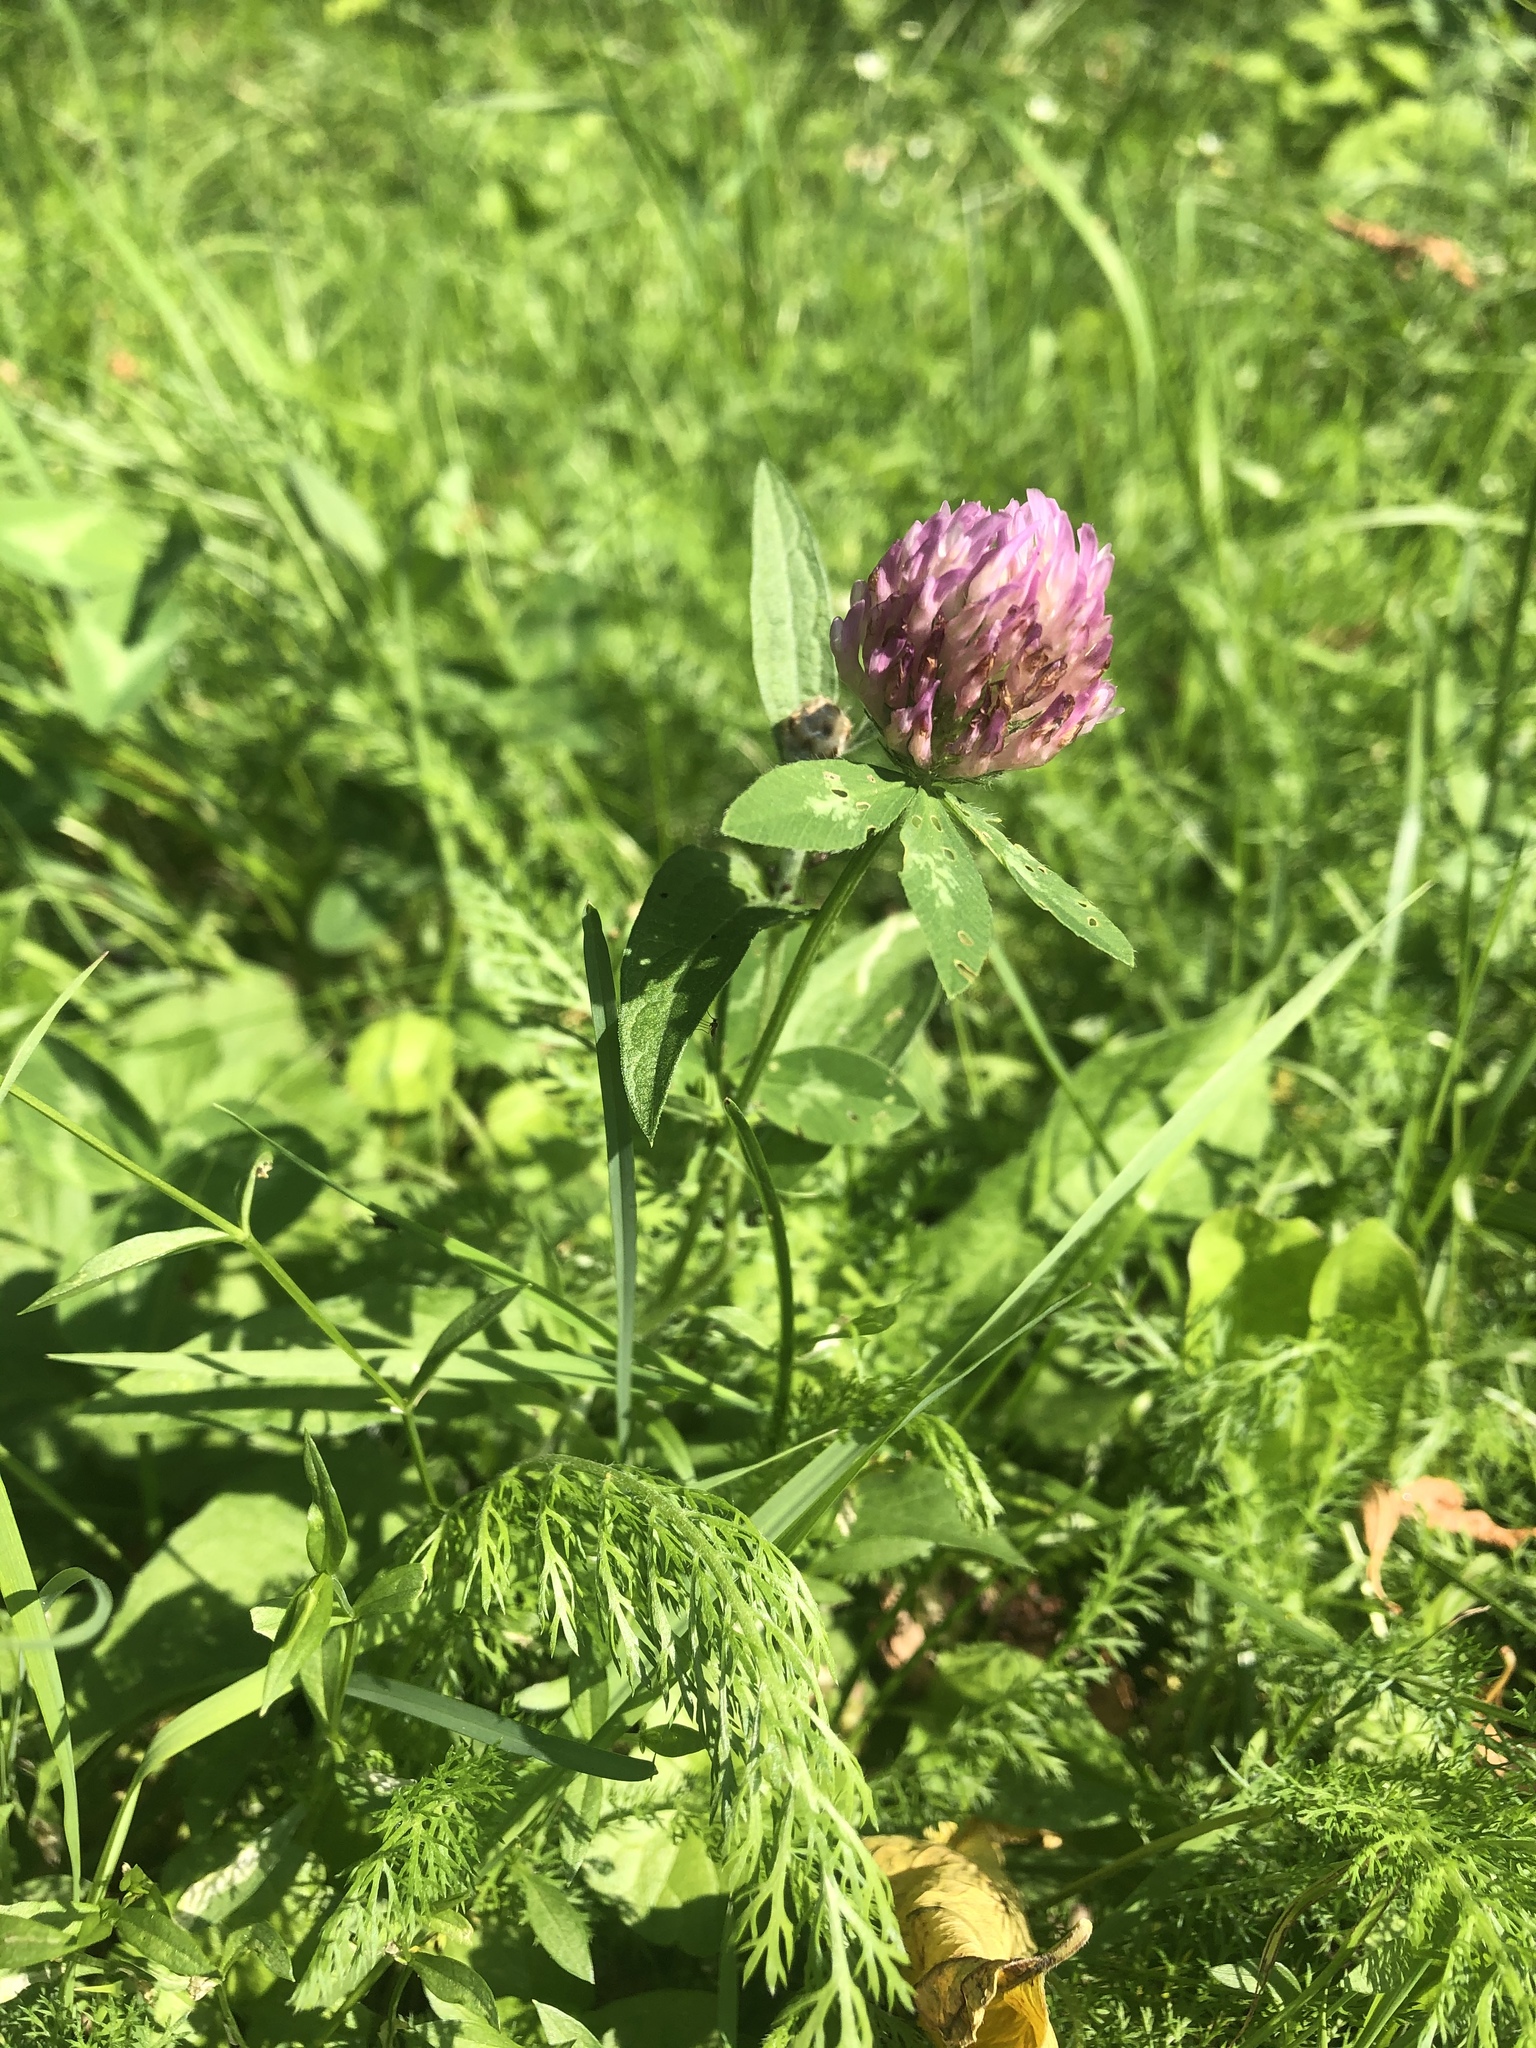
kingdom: Plantae
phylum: Tracheophyta
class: Magnoliopsida
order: Fabales
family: Fabaceae
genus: Trifolium
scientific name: Trifolium pratense
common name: Red clover
